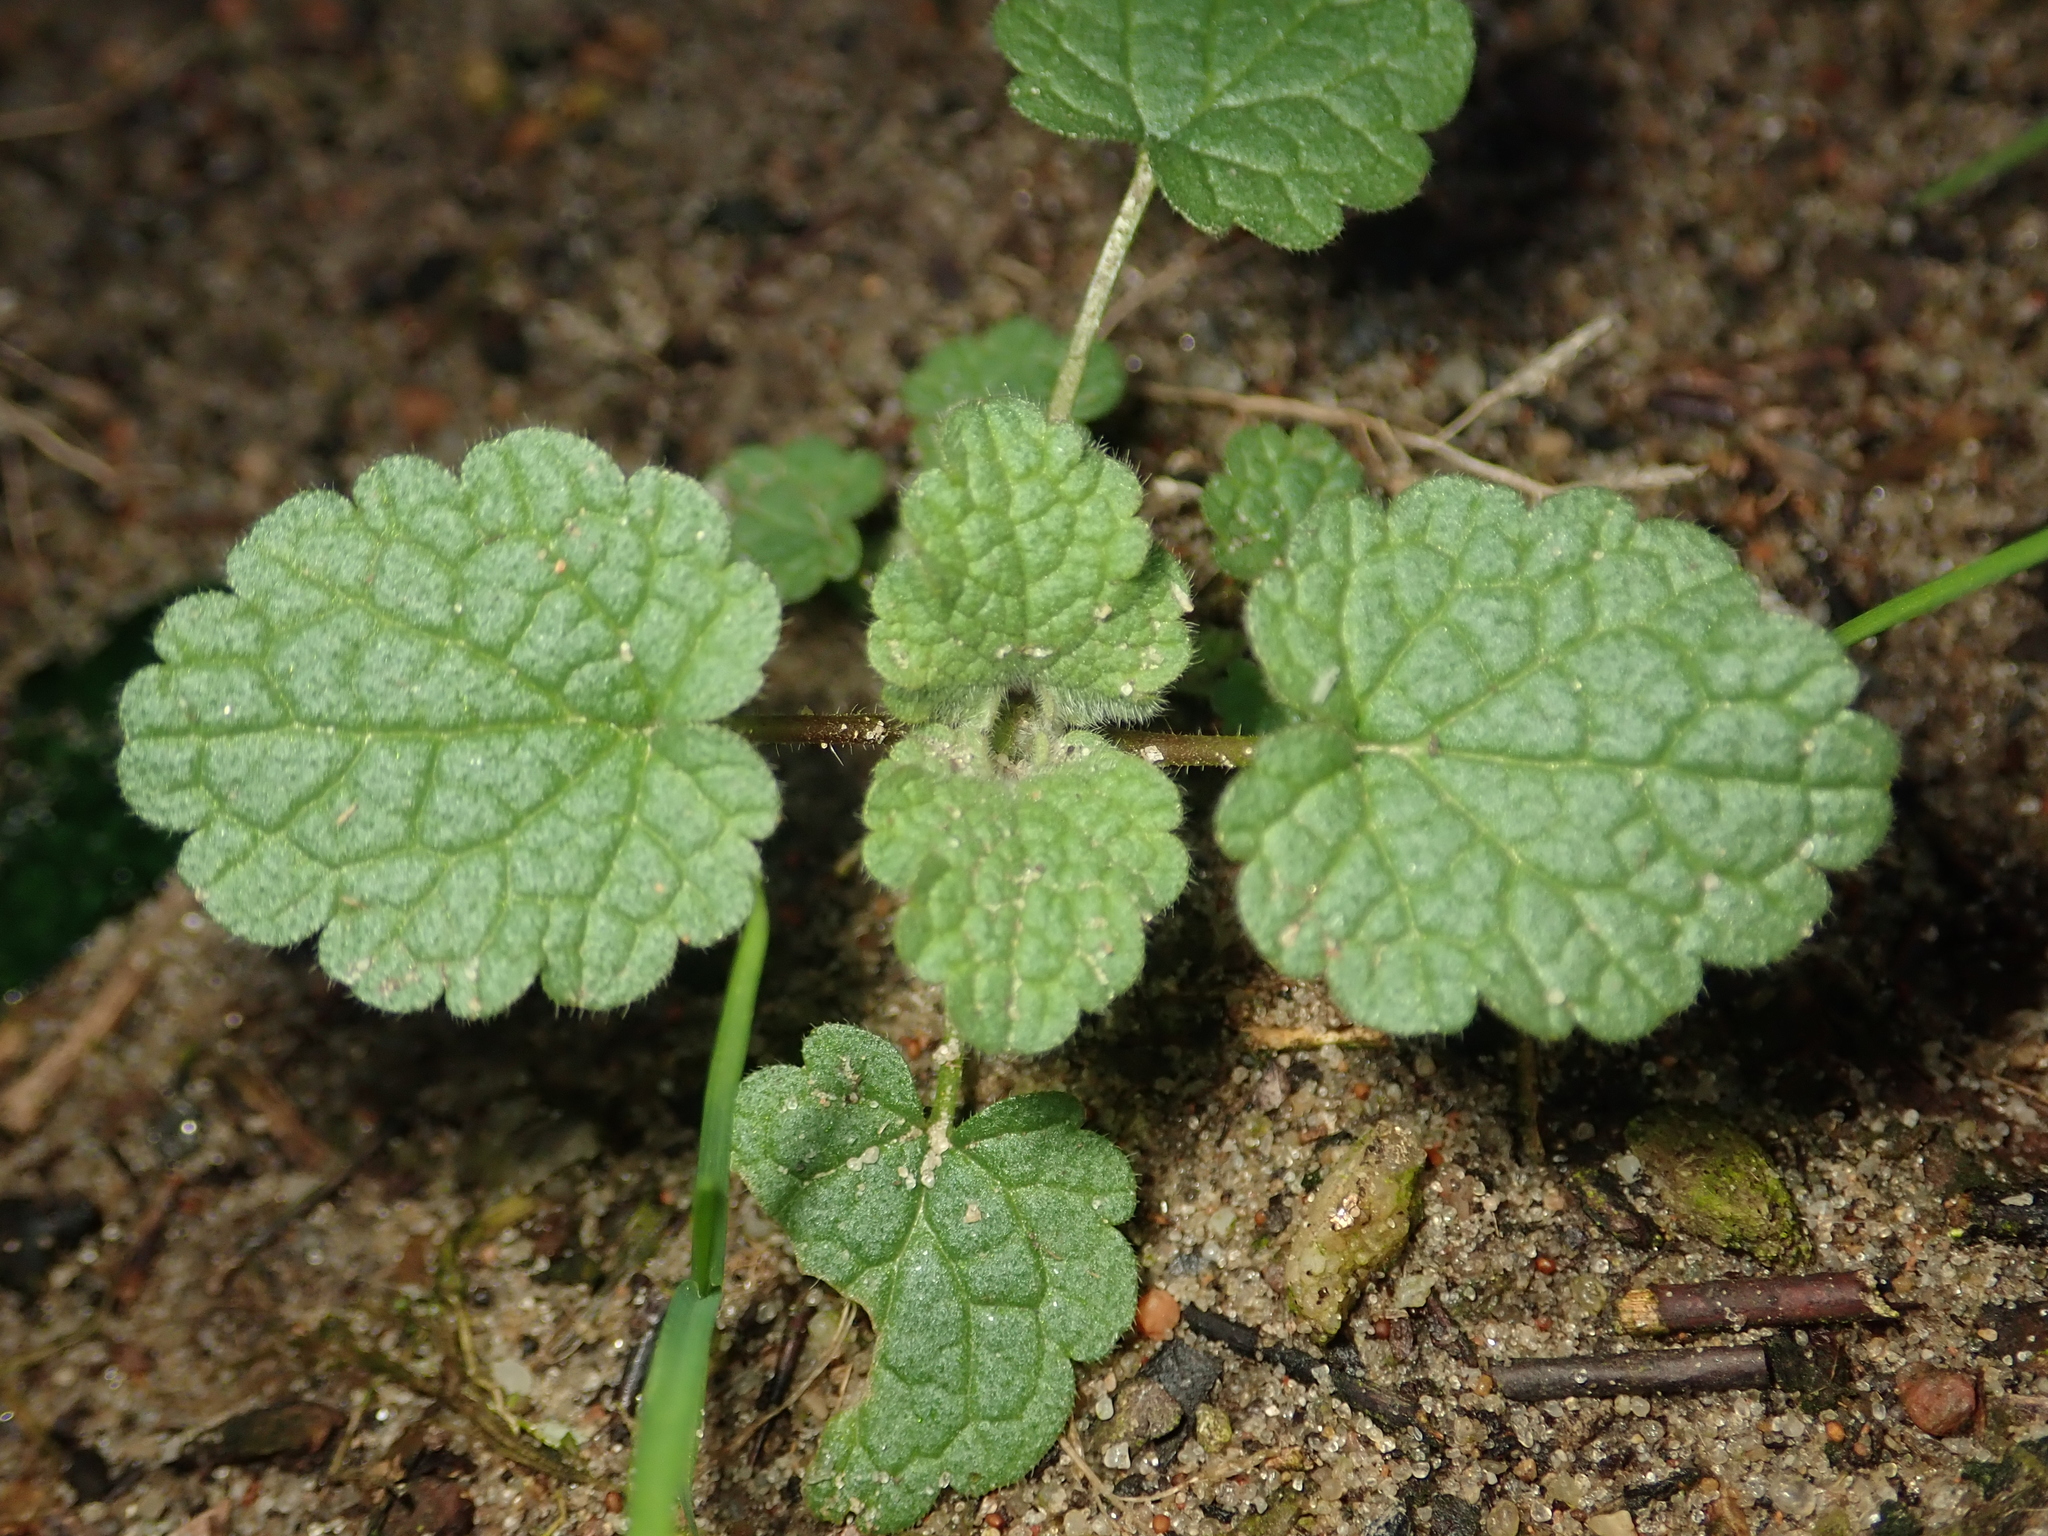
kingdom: Plantae
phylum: Tracheophyta
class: Magnoliopsida
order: Lamiales
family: Lamiaceae
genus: Lamium
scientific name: Lamium purpureum
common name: Red dead-nettle
